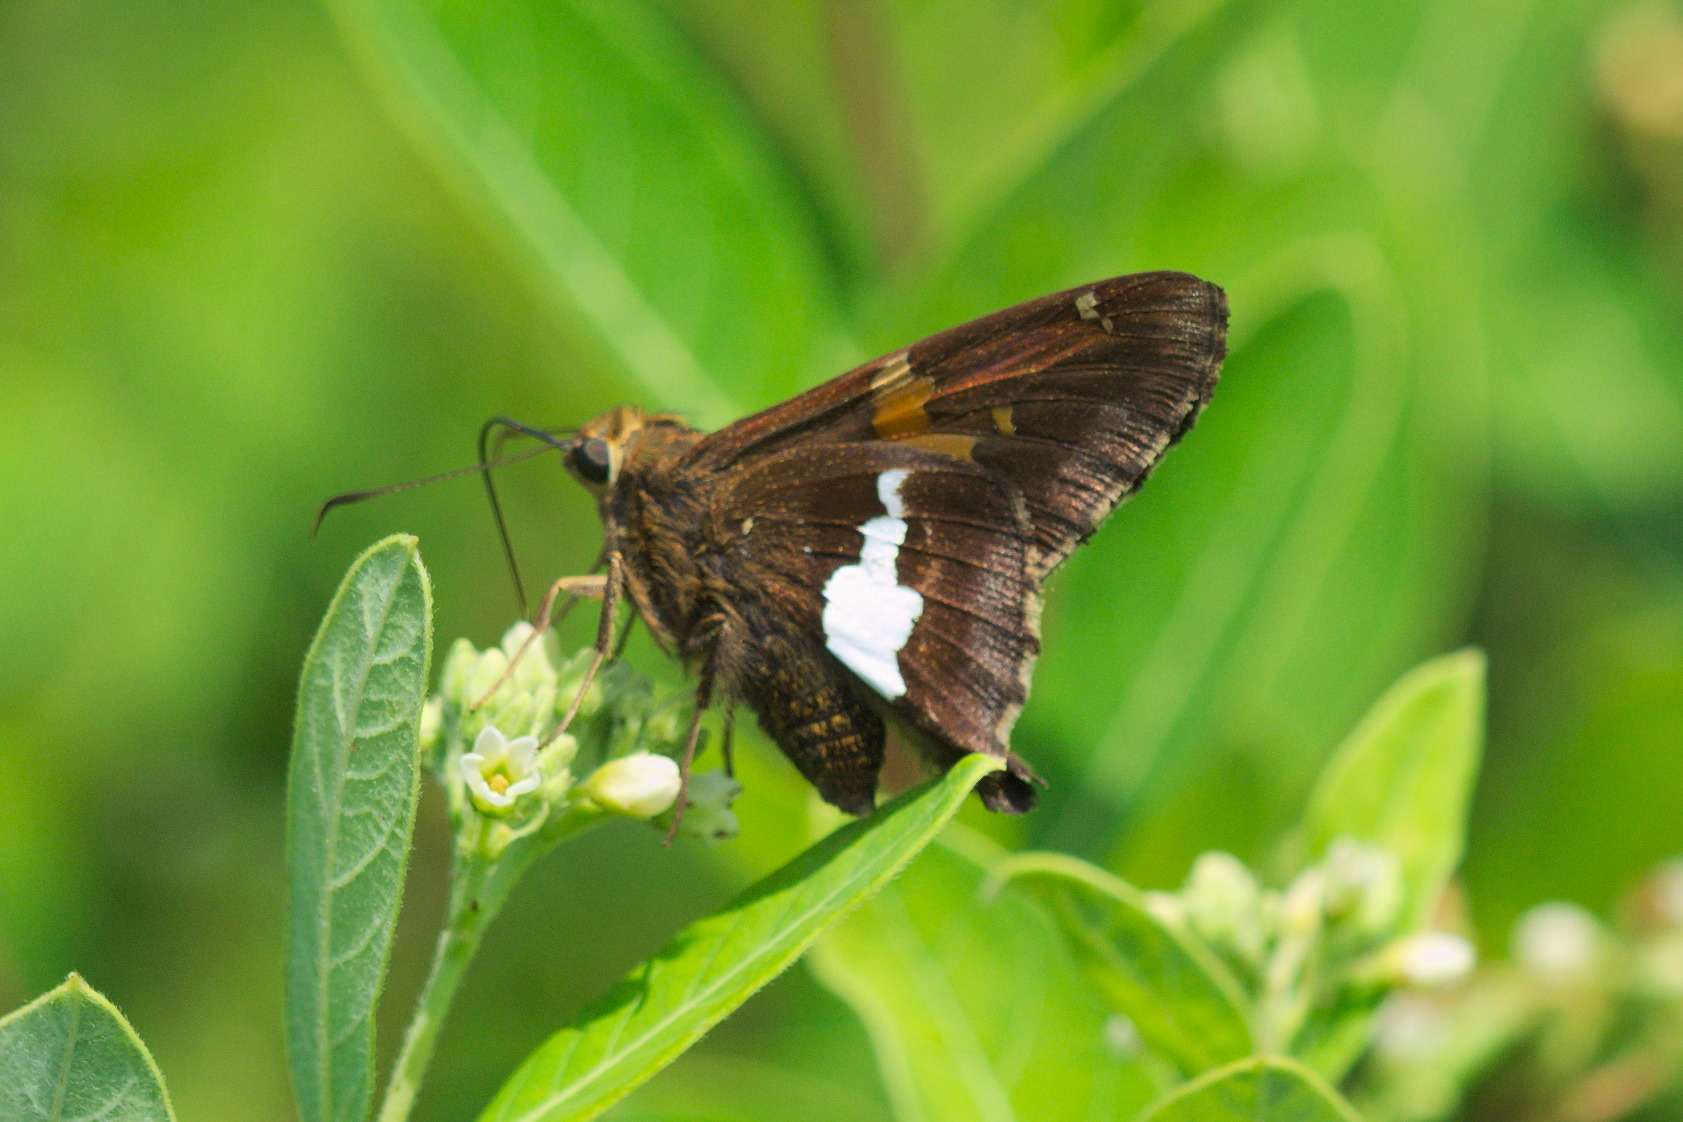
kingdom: Animalia
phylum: Arthropoda
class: Insecta
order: Lepidoptera
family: Hesperiidae
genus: Epargyreus
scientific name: Epargyreus clarus
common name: Silver-spotted skipper
